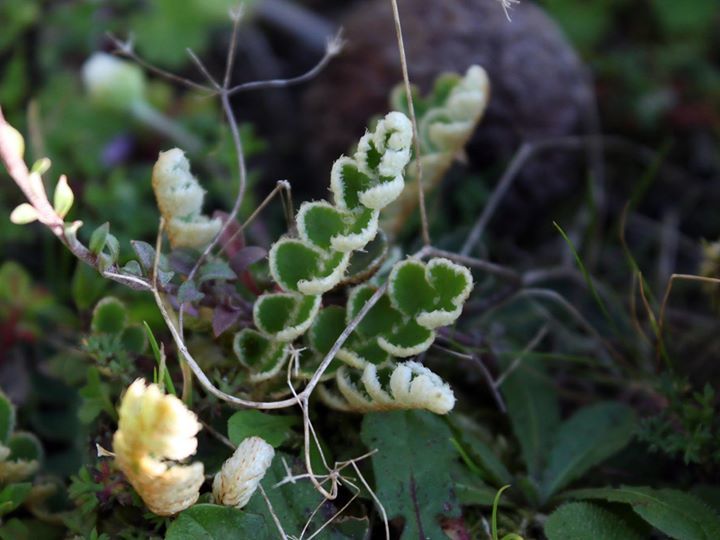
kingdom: Plantae
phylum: Tracheophyta
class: Polypodiopsida
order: Polypodiales
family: Aspleniaceae
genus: Asplenium
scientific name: Asplenium ceterach
